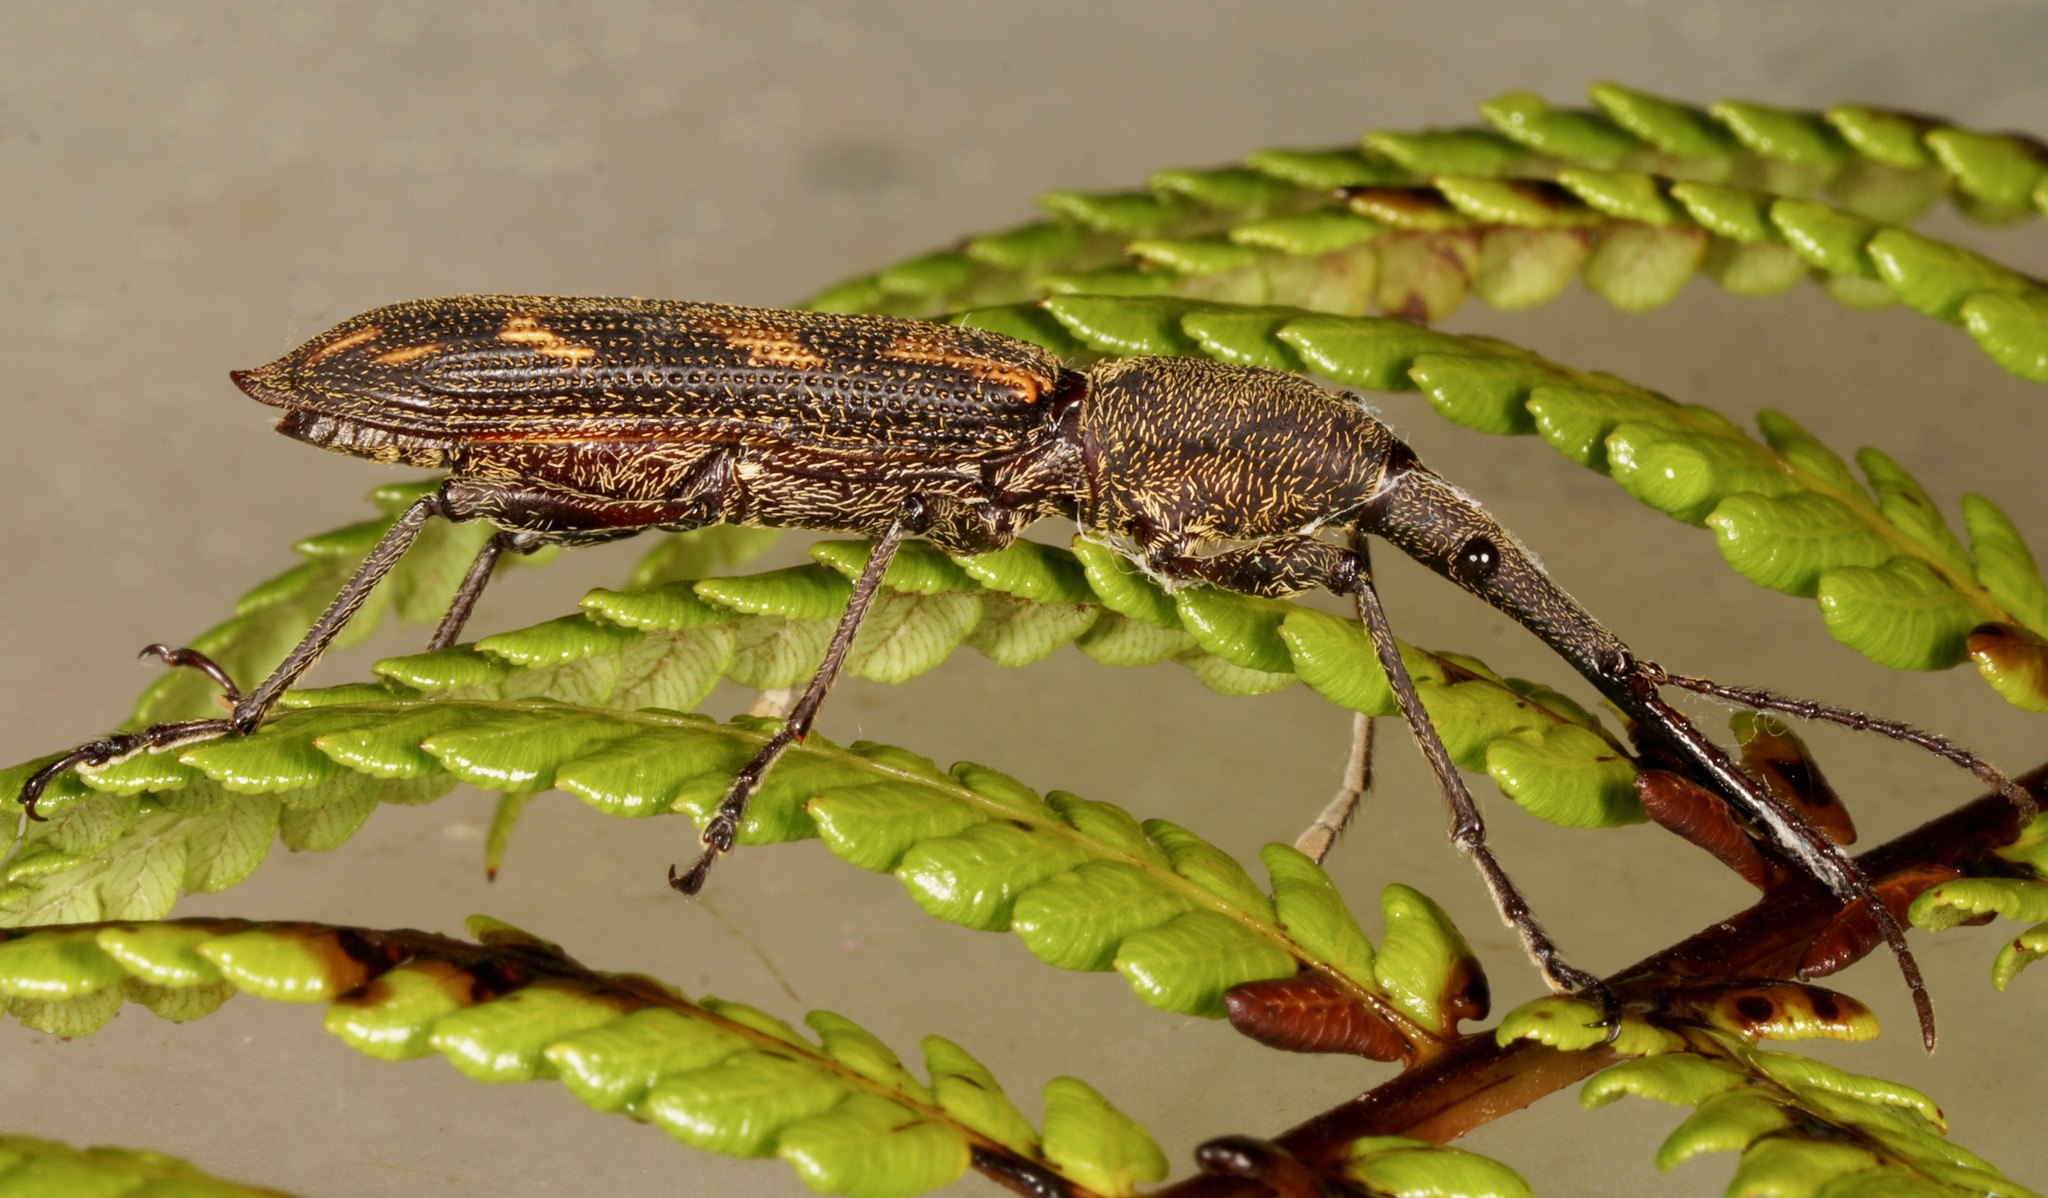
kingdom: Animalia
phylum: Arthropoda
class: Insecta
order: Coleoptera
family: Brentidae
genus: Lasiorhynchus
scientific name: Lasiorhynchus barbicornis
